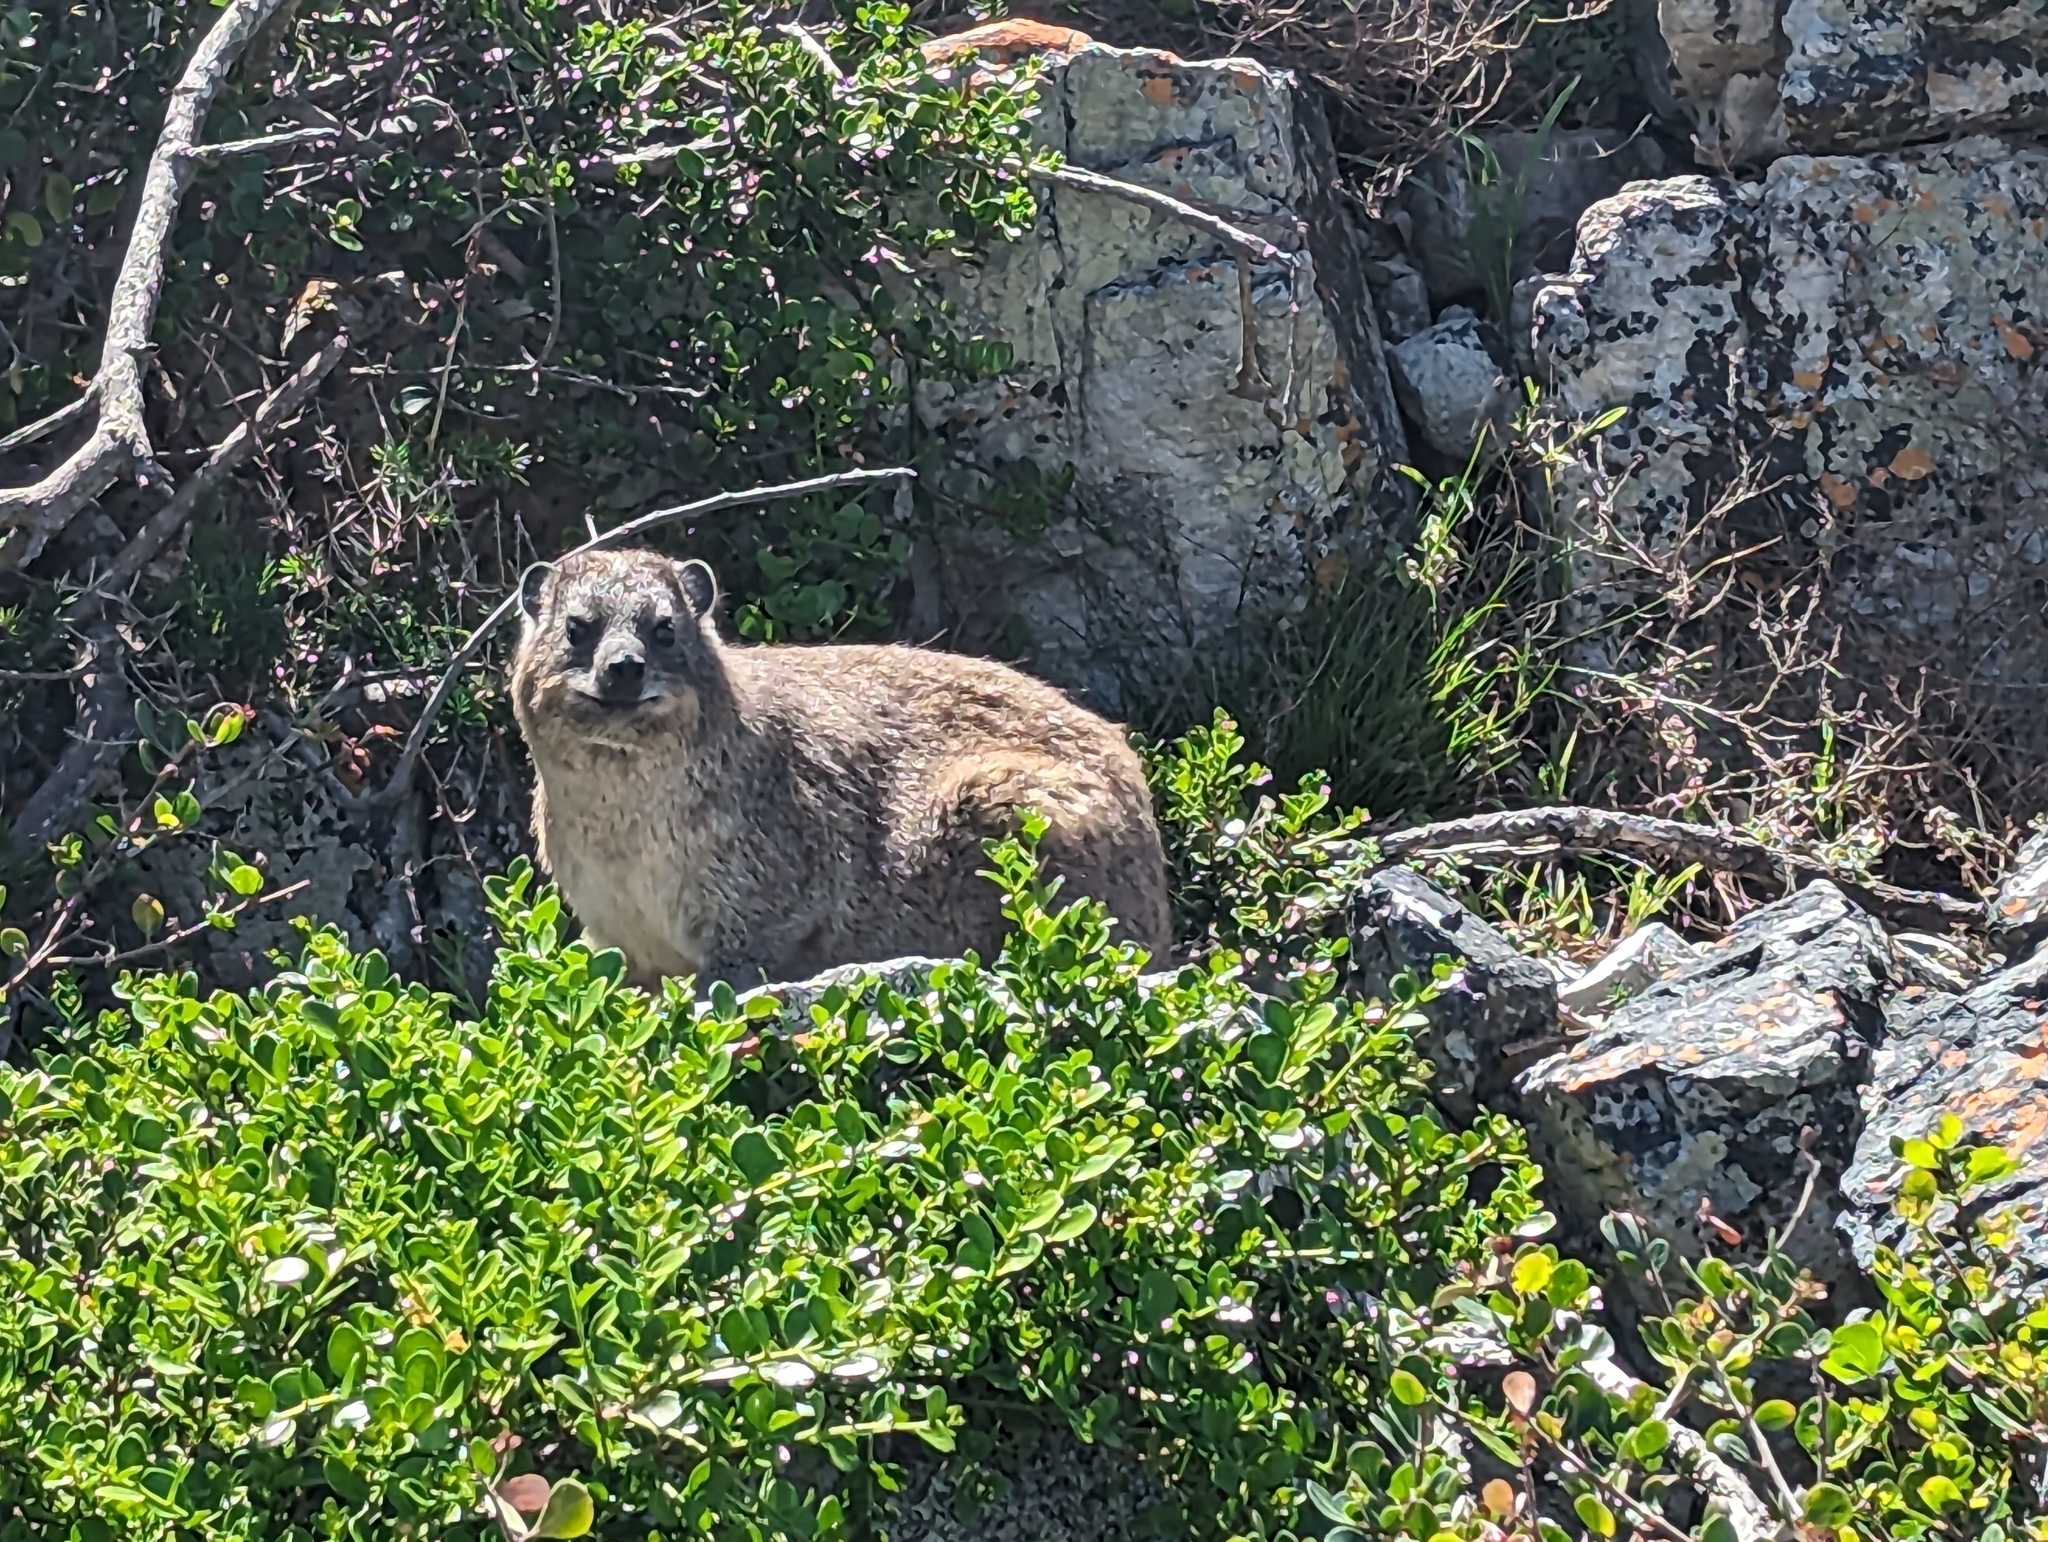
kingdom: Animalia
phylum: Chordata
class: Mammalia
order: Hyracoidea
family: Procaviidae
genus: Procavia
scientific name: Procavia capensis
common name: Rock hyrax
